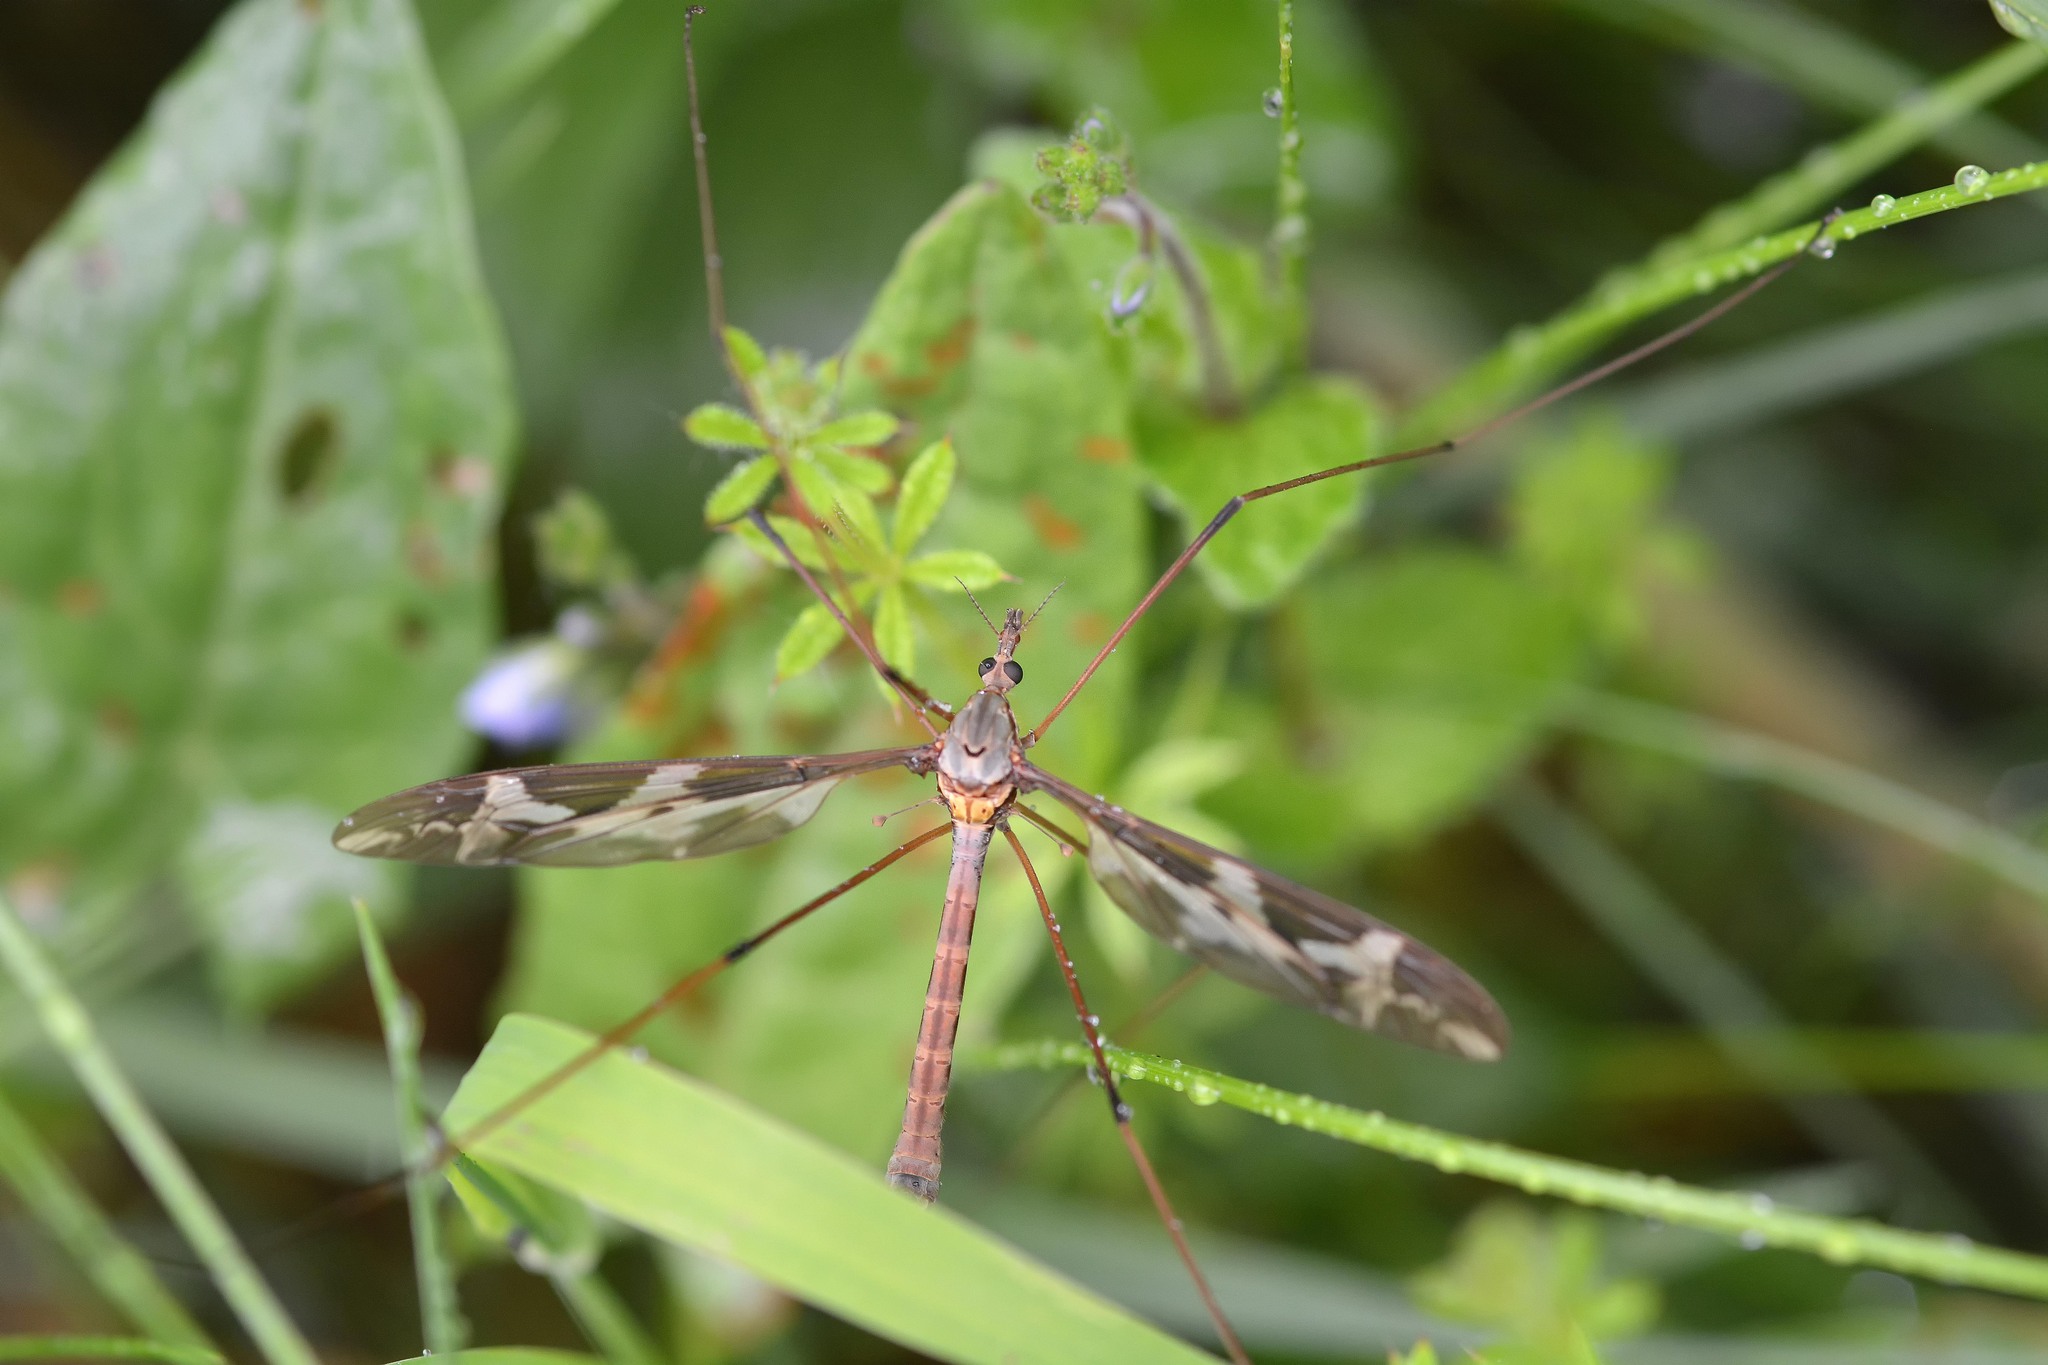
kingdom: Animalia
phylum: Arthropoda
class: Insecta
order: Diptera
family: Tipulidae
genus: Tipula
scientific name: Tipula maxima
